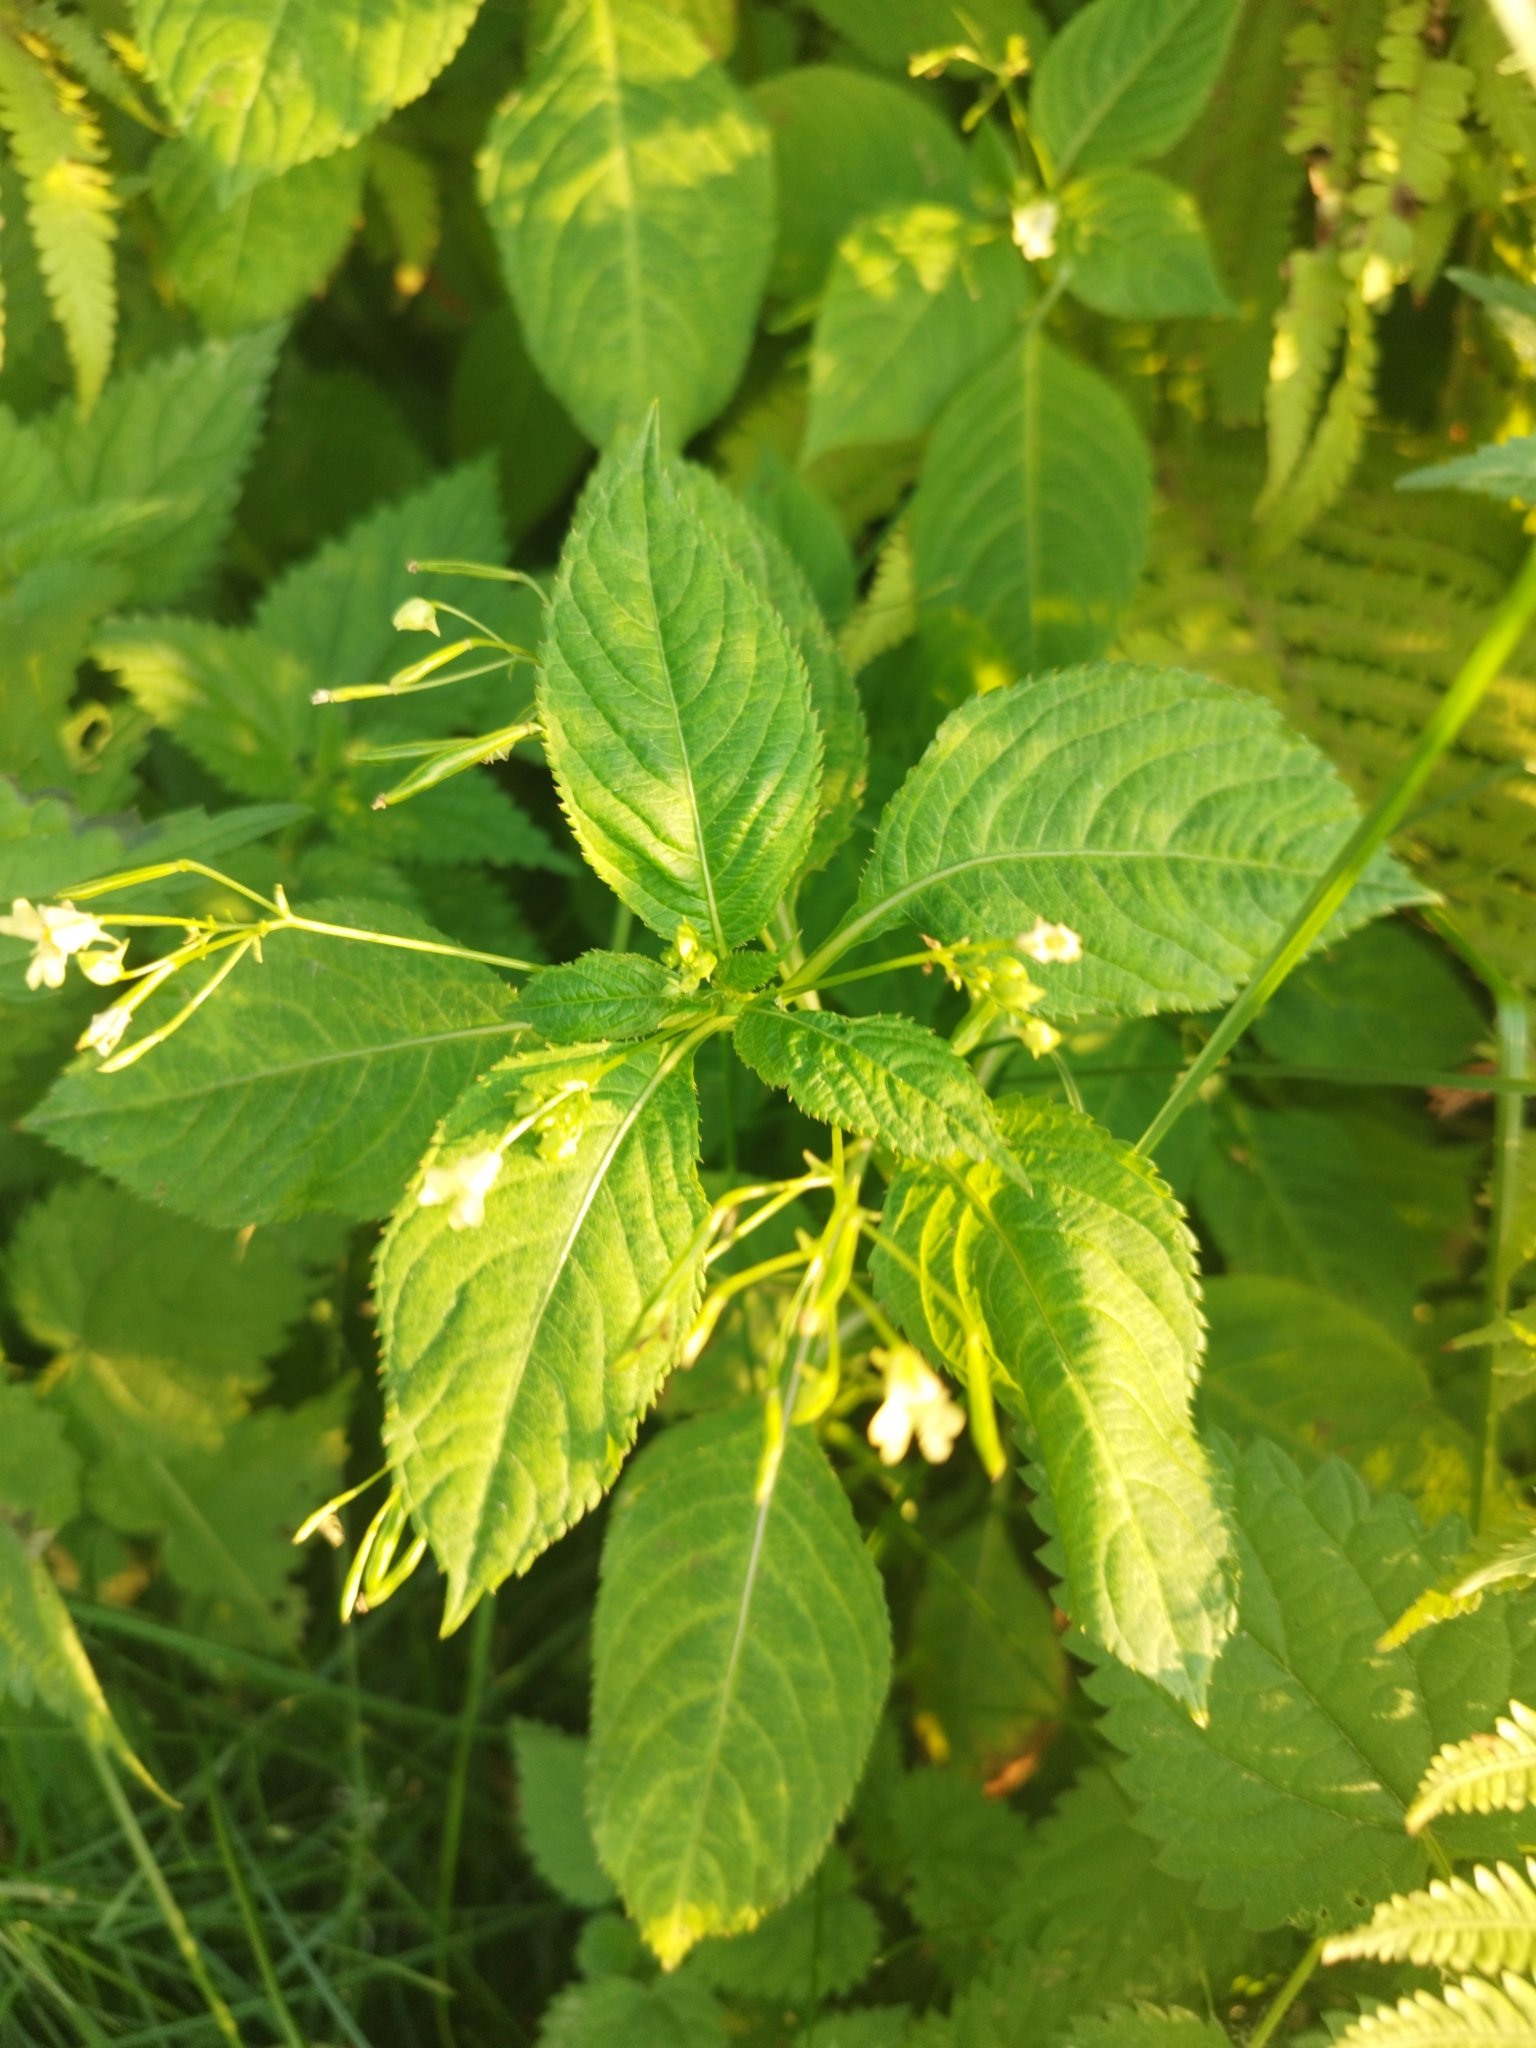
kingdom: Plantae
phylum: Tracheophyta
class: Magnoliopsida
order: Ericales
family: Balsaminaceae
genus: Impatiens
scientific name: Impatiens parviflora
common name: Small balsam
